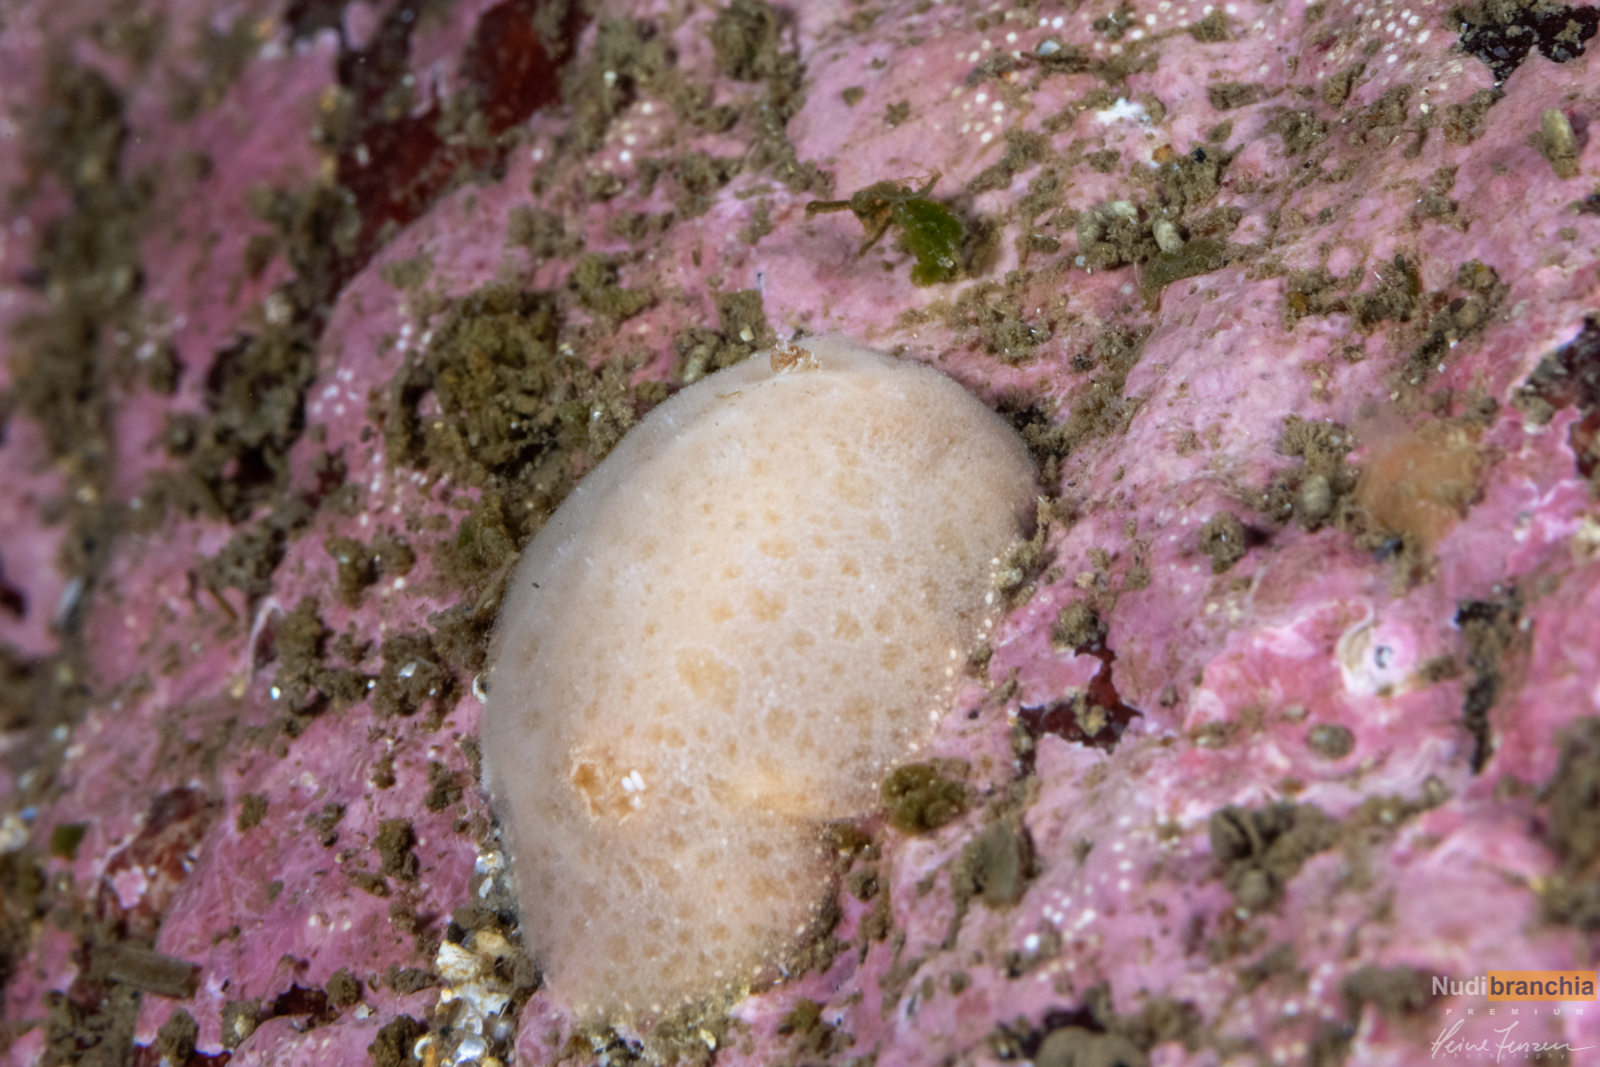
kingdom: Animalia
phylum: Mollusca
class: Gastropoda
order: Nudibranchia
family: Discodorididae
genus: Jorunna
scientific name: Jorunna tomentosa
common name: Grey sea slug
